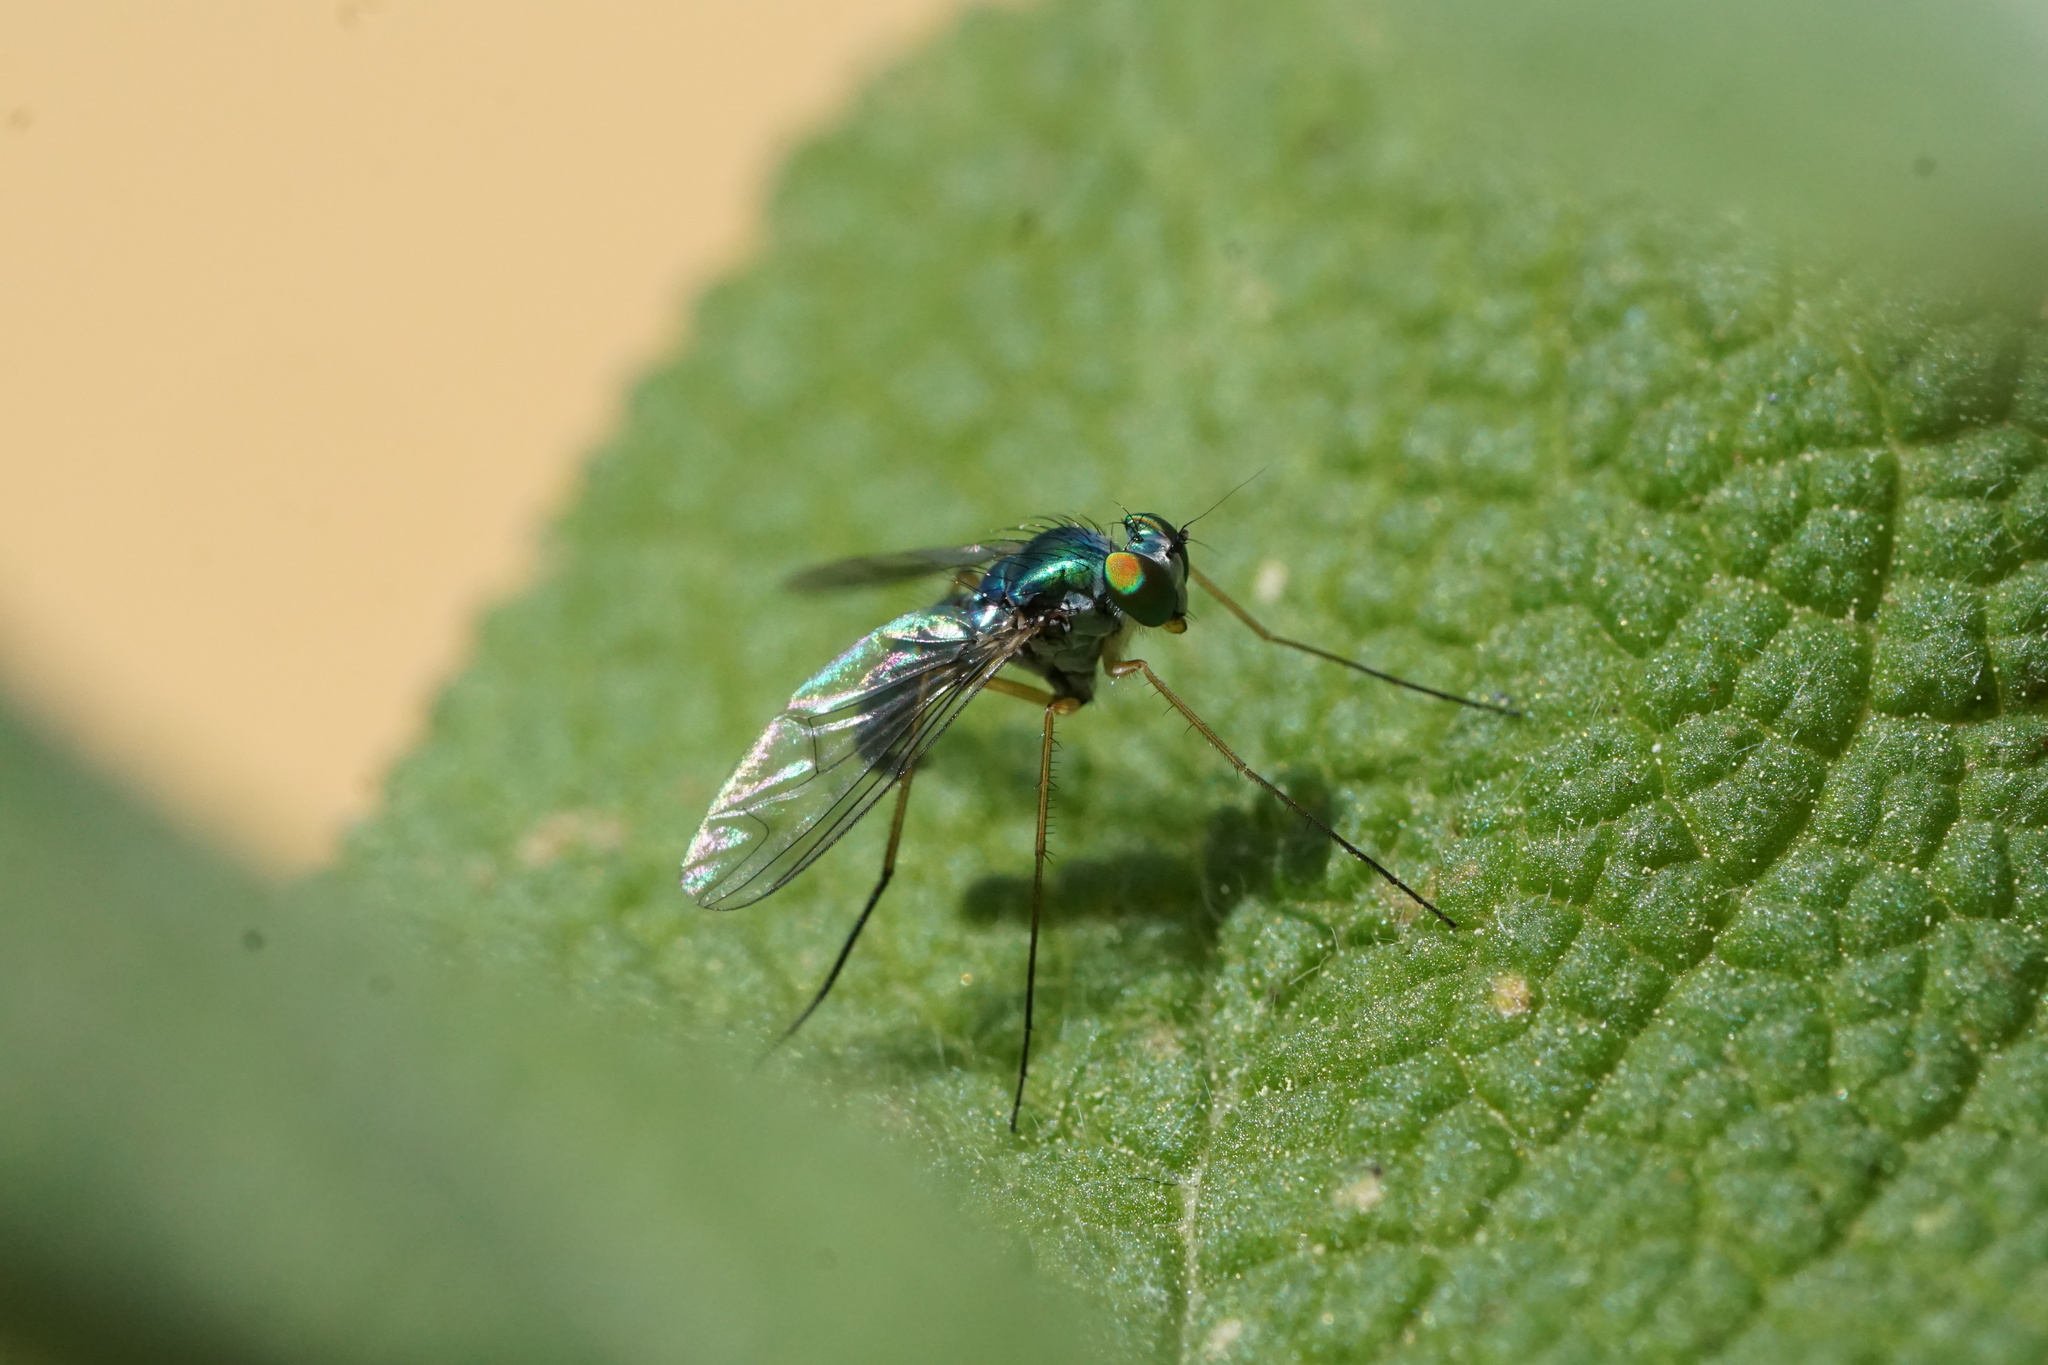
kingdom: Animalia
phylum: Arthropoda
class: Insecta
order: Diptera
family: Dolichopodidae
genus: Condylostylus
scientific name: Condylostylus sipho
